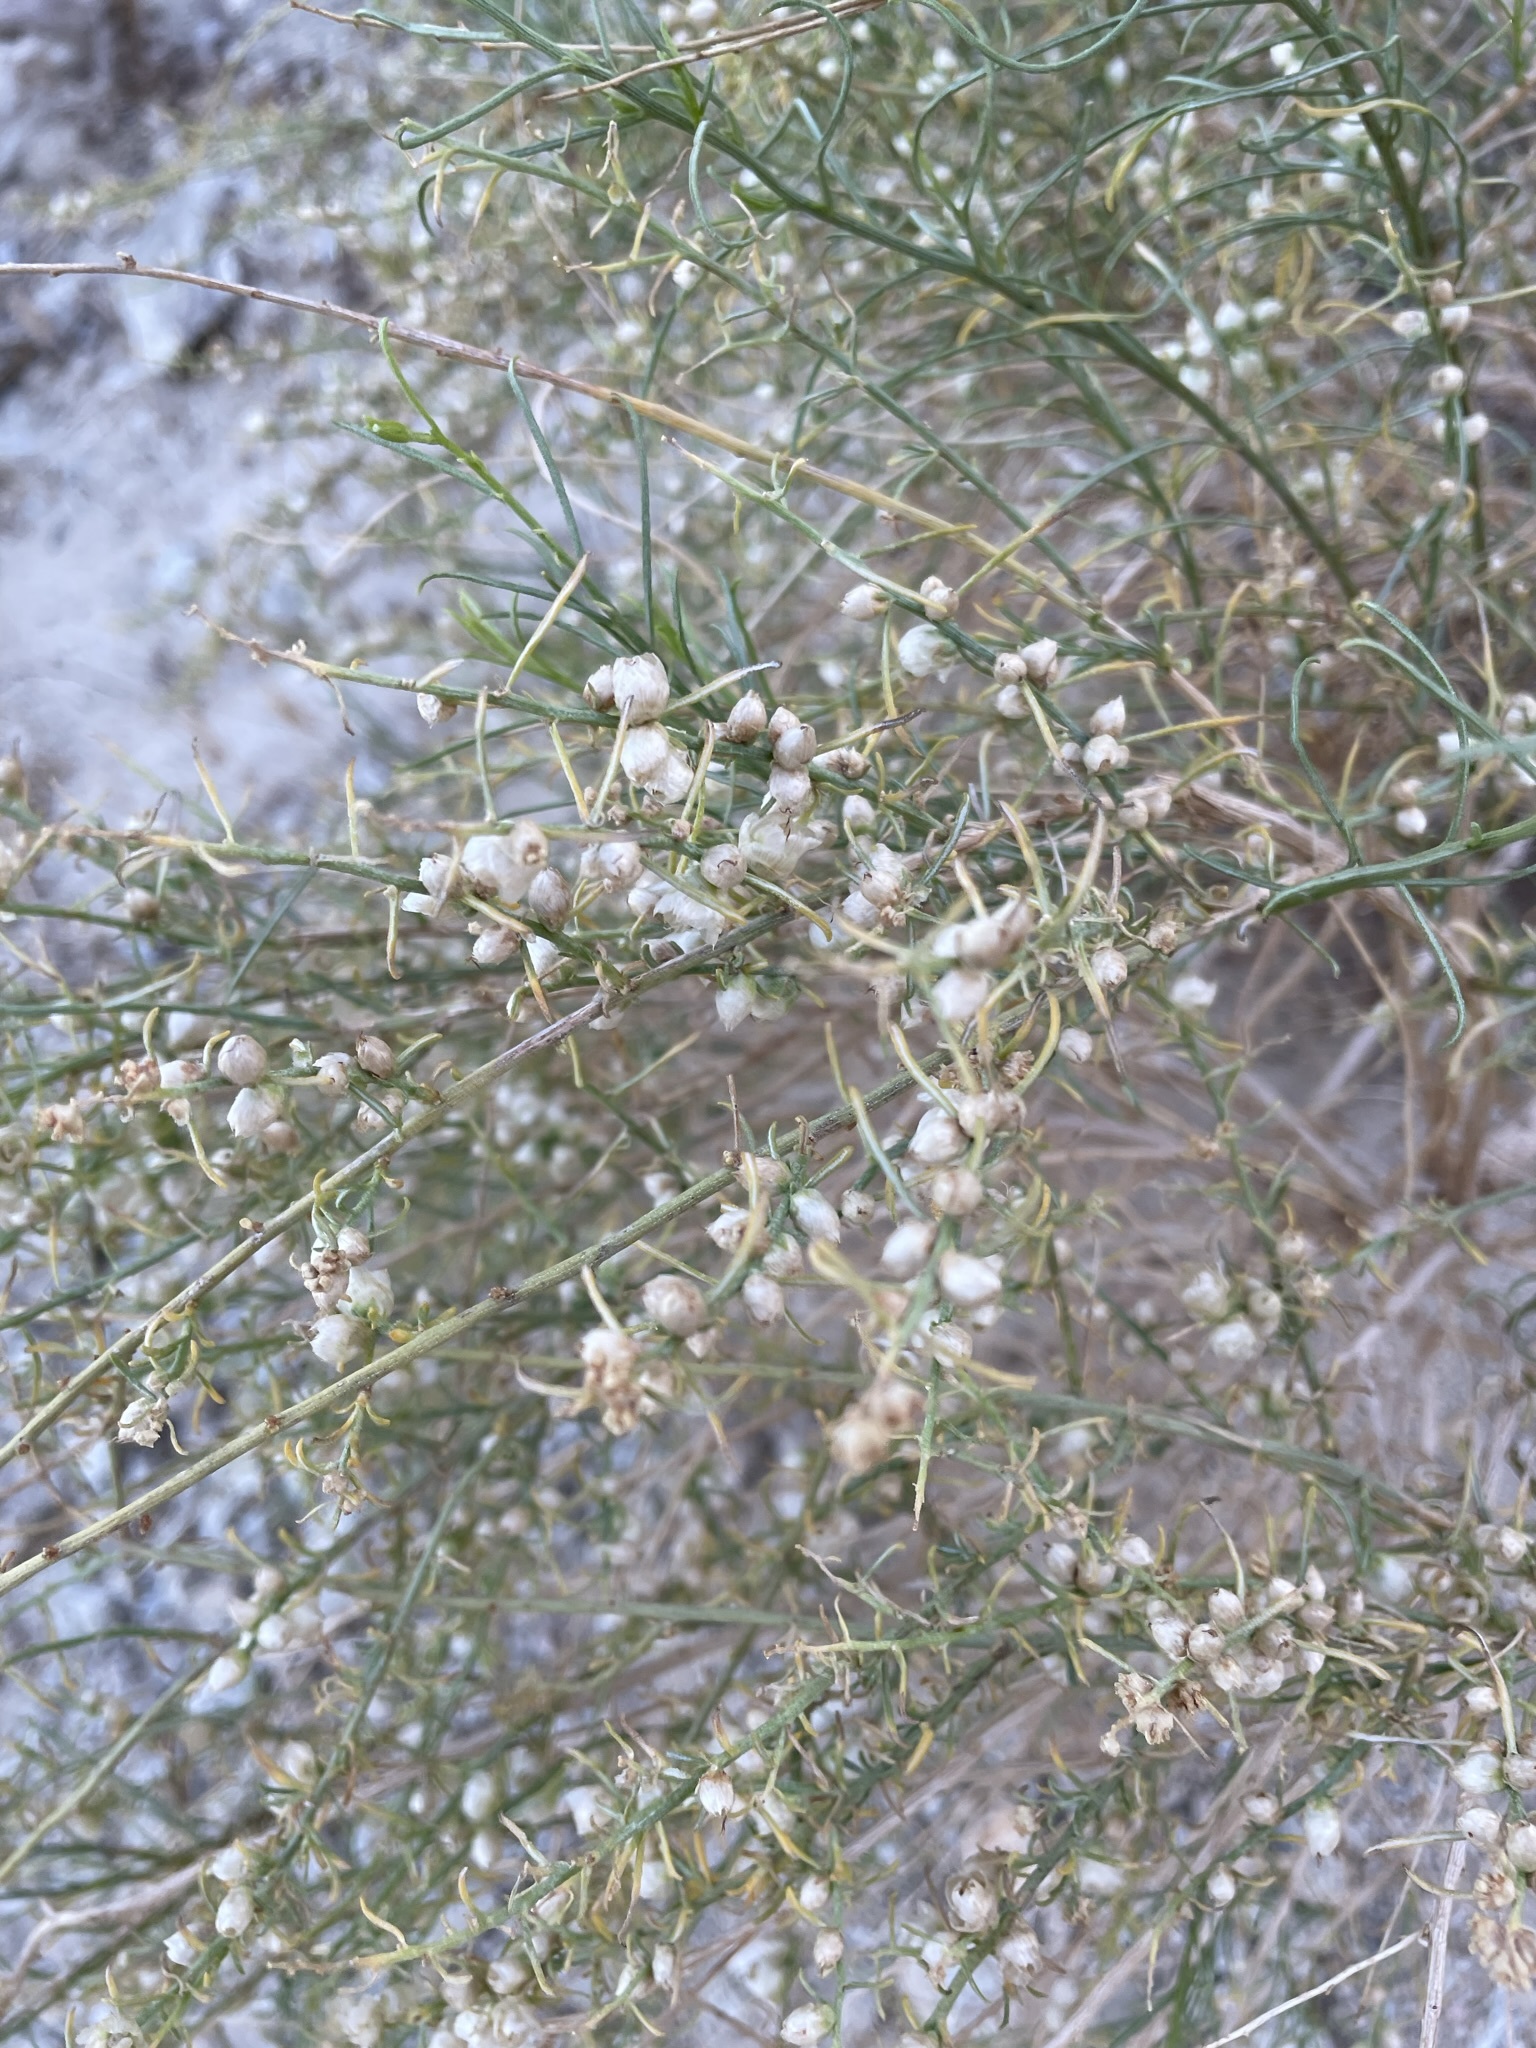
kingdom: Plantae
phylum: Tracheophyta
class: Magnoliopsida
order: Asterales
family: Asteraceae
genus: Ambrosia
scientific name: Ambrosia salsola
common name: Burrobrush
